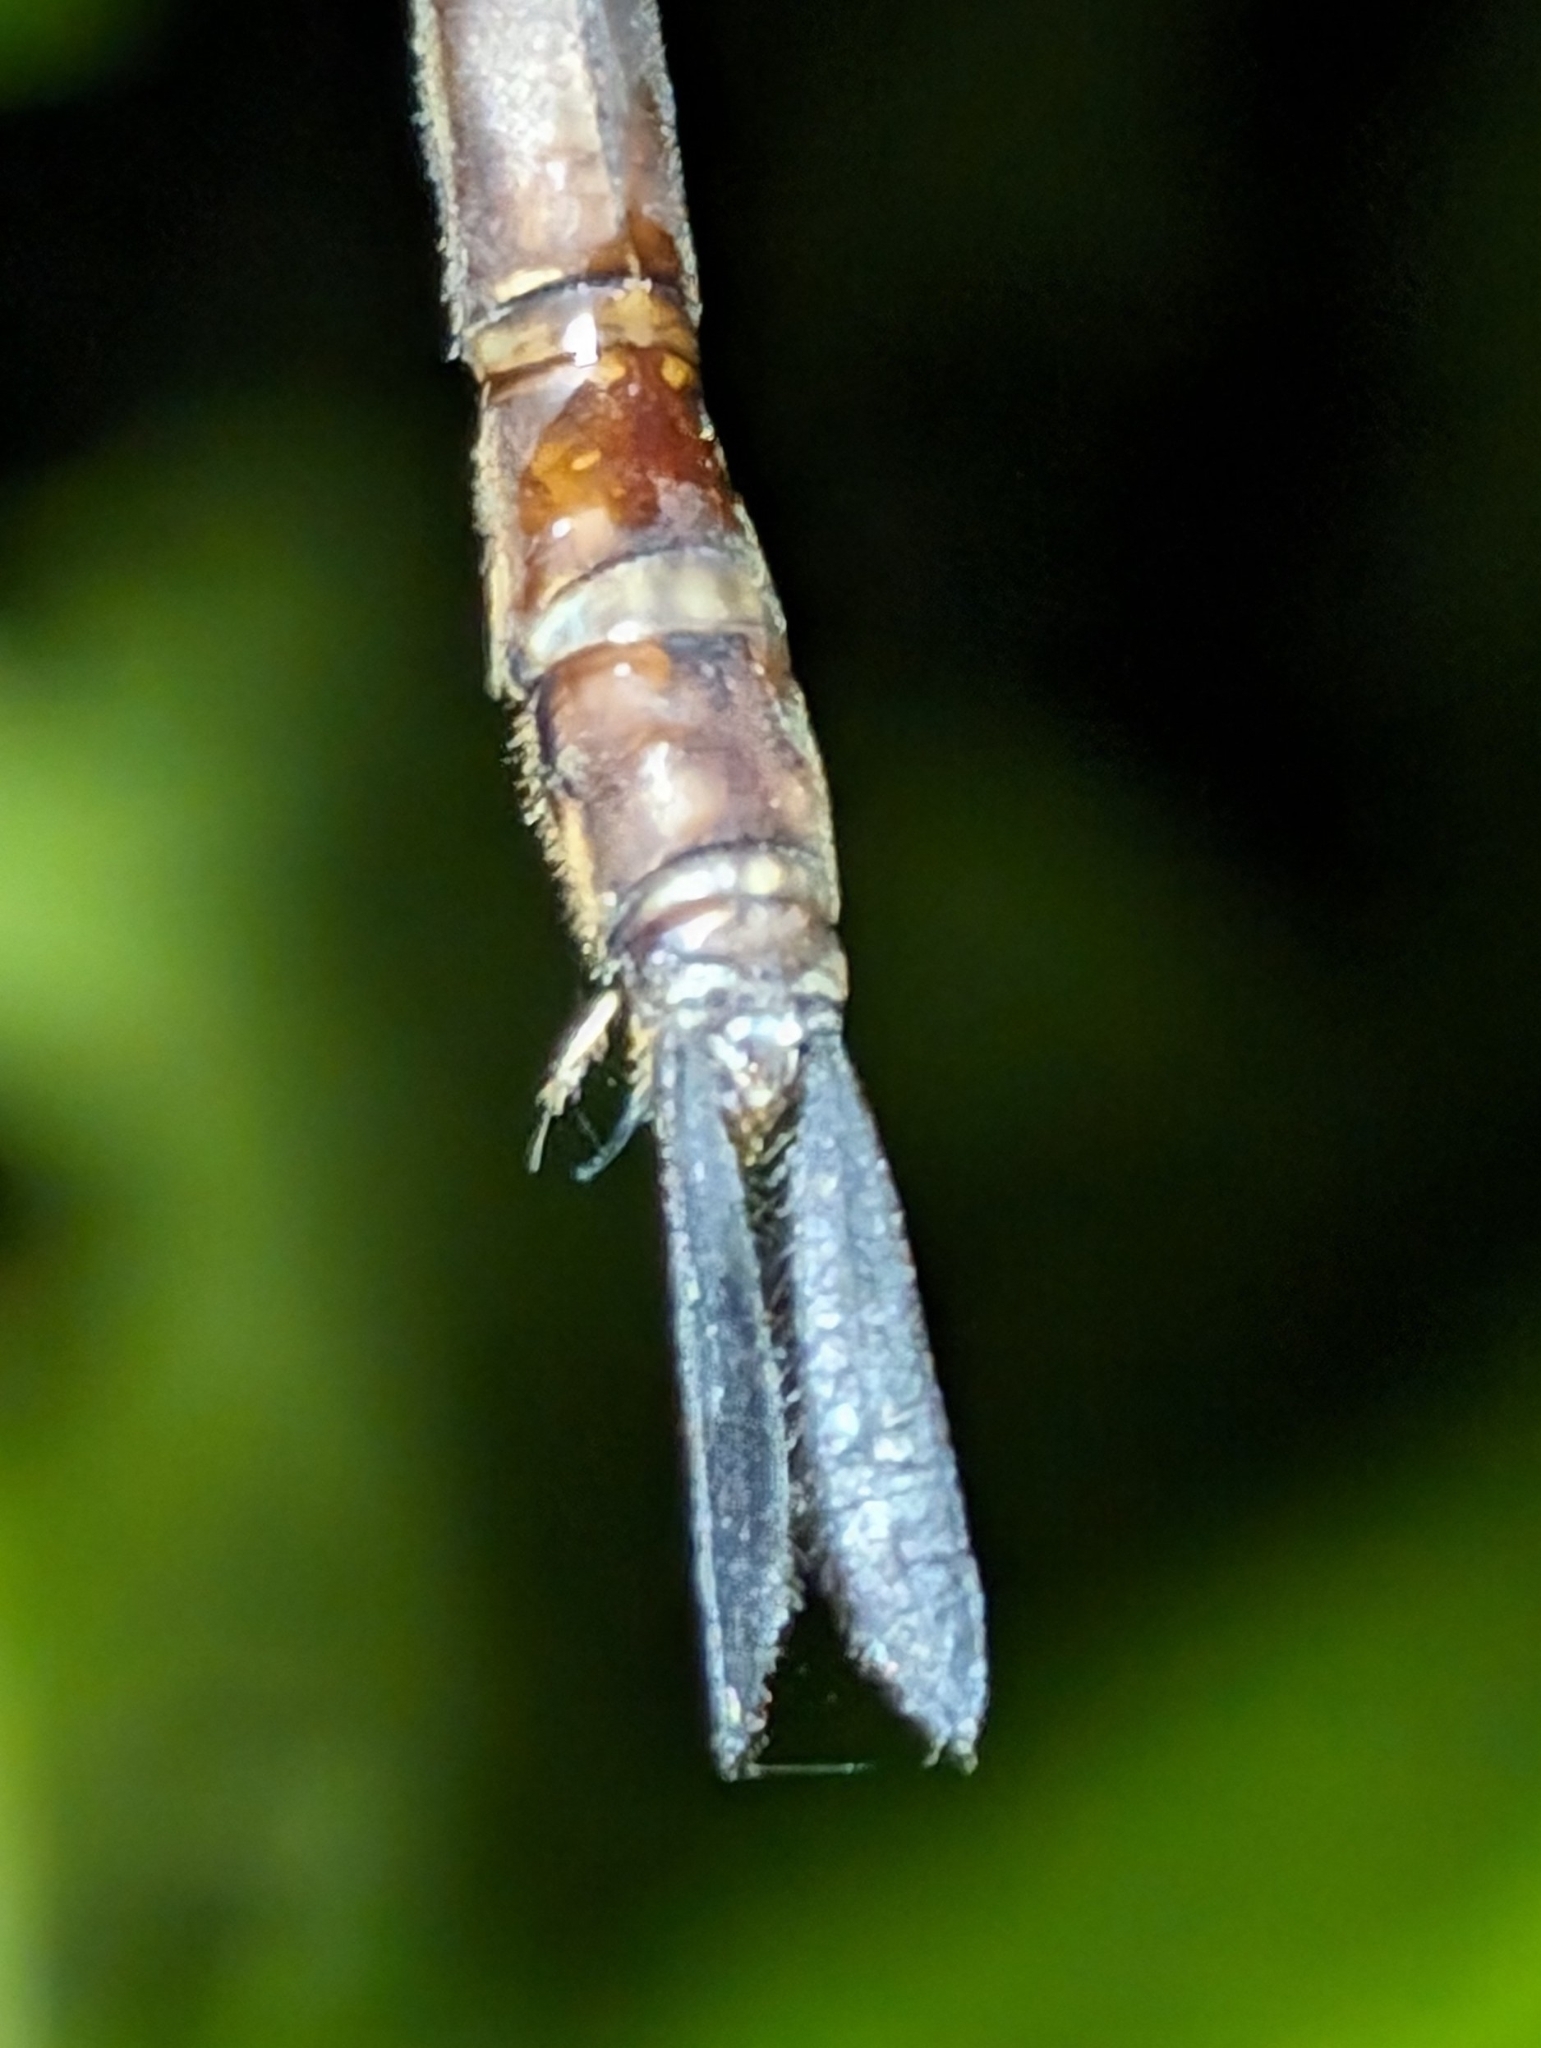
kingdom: Animalia
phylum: Arthropoda
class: Insecta
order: Odonata
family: Aeshnidae
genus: Gynacantha
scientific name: Gynacantha mexicana
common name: Bar-sided darner
